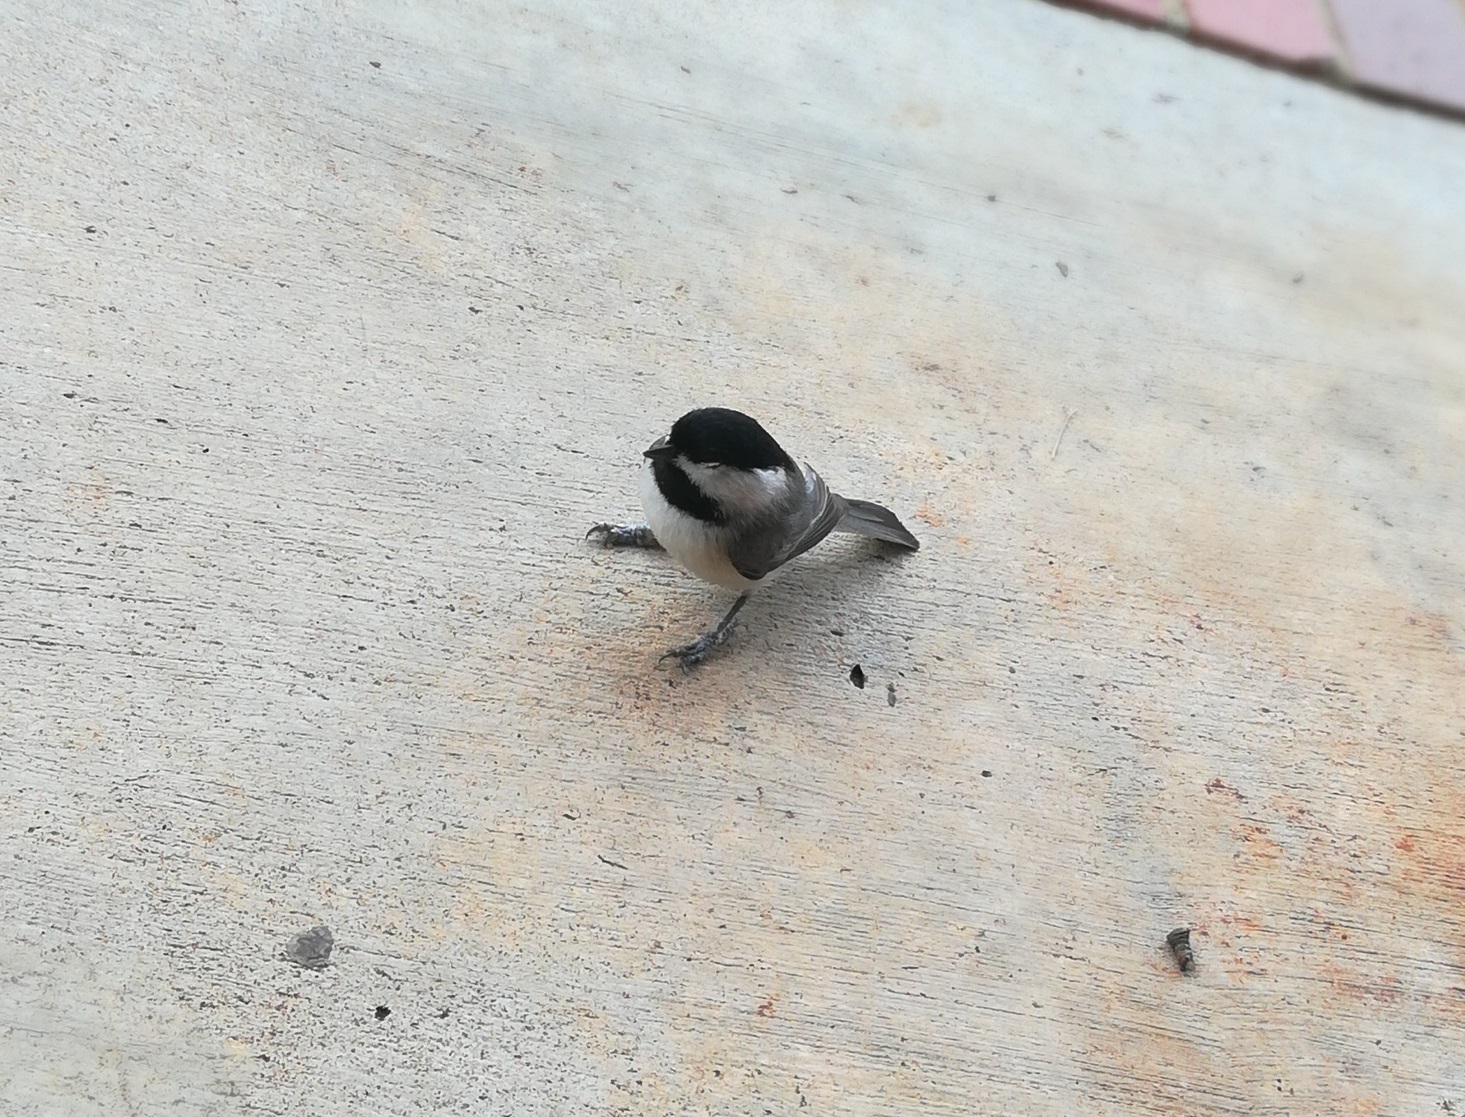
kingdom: Animalia
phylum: Chordata
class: Aves
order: Passeriformes
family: Paridae
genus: Poecile
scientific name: Poecile carolinensis
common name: Carolina chickadee
